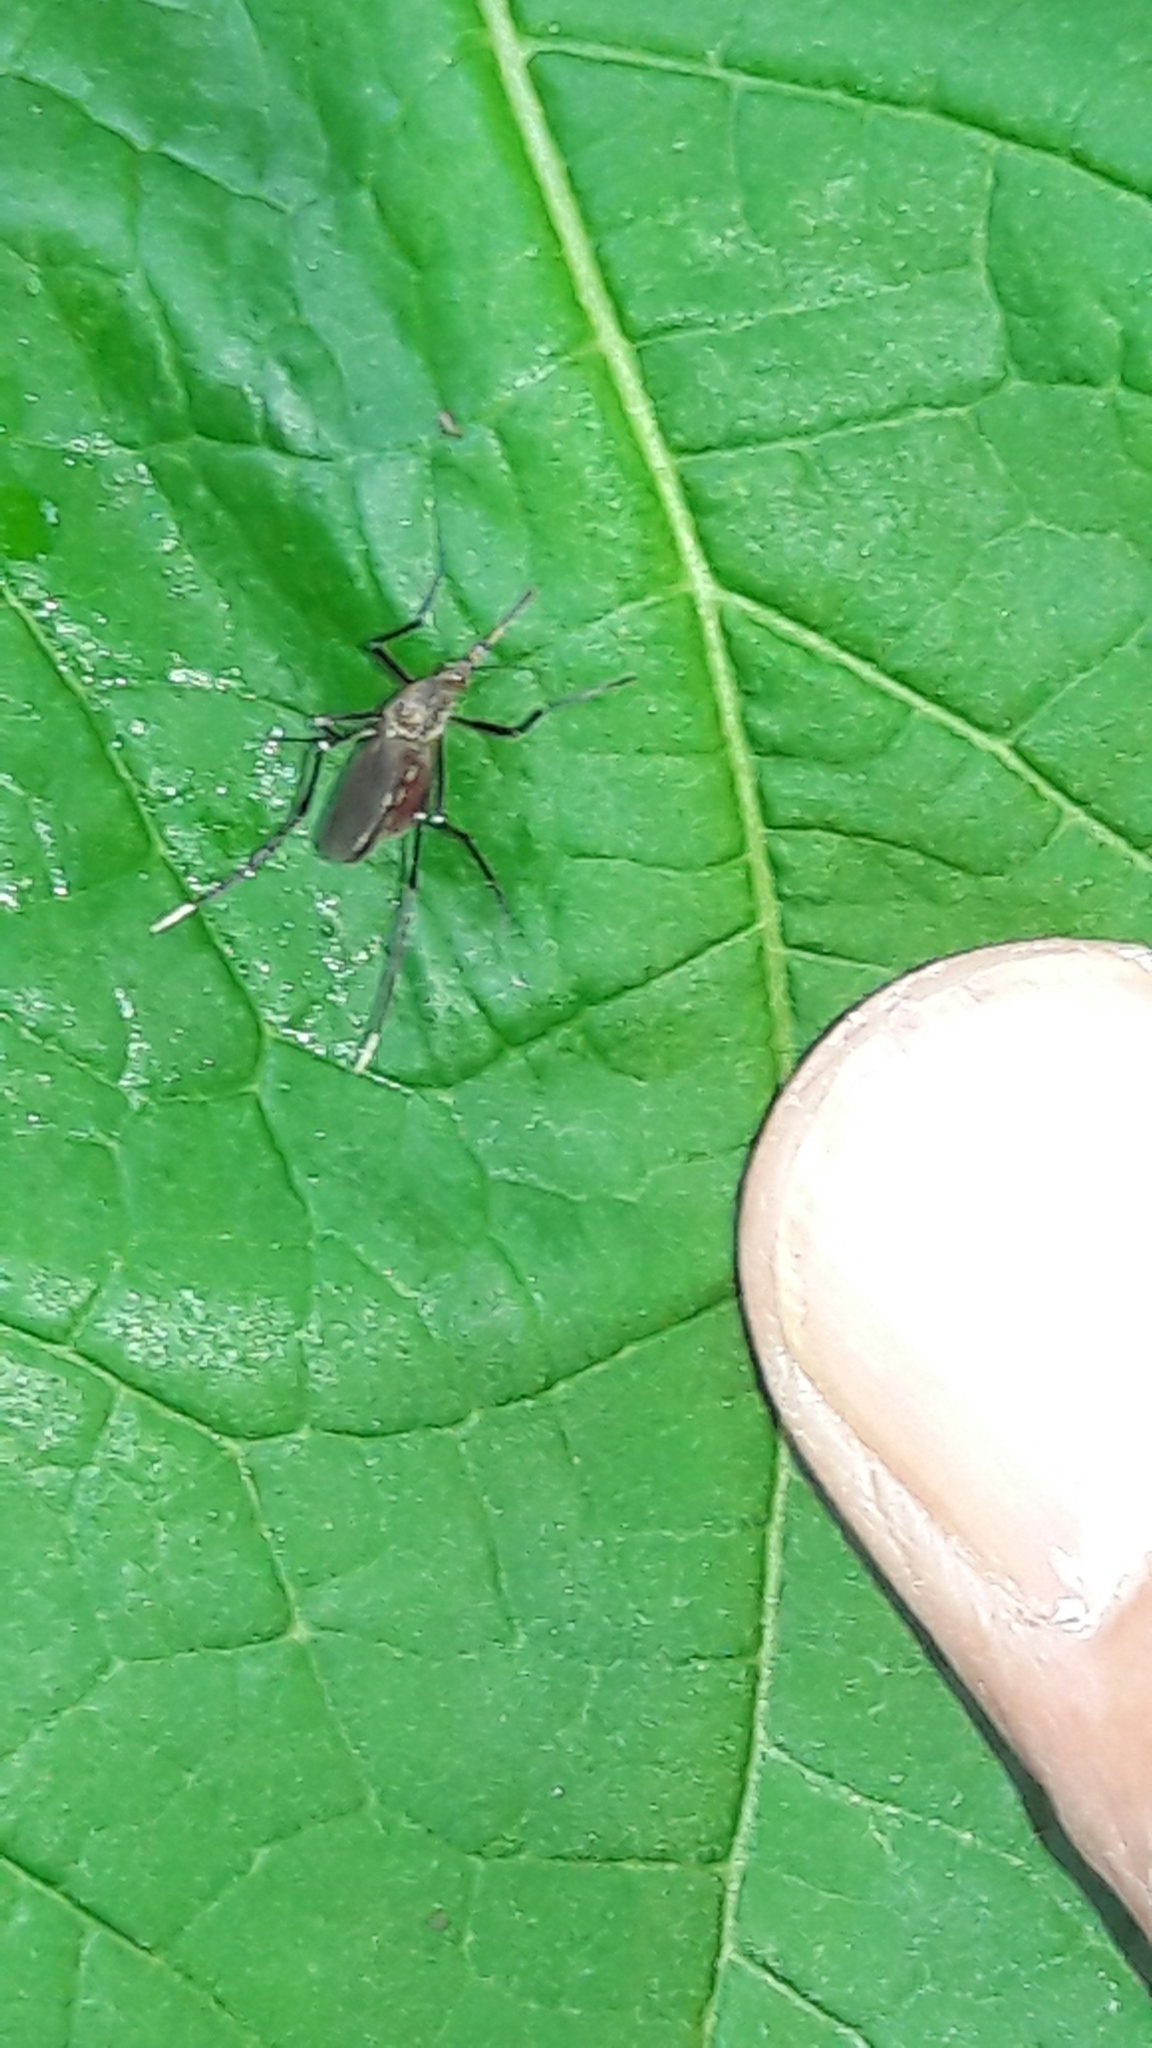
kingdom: Animalia
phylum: Arthropoda
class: Insecta
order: Diptera
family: Culicidae
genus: Psorophora
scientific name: Psorophora ferox
